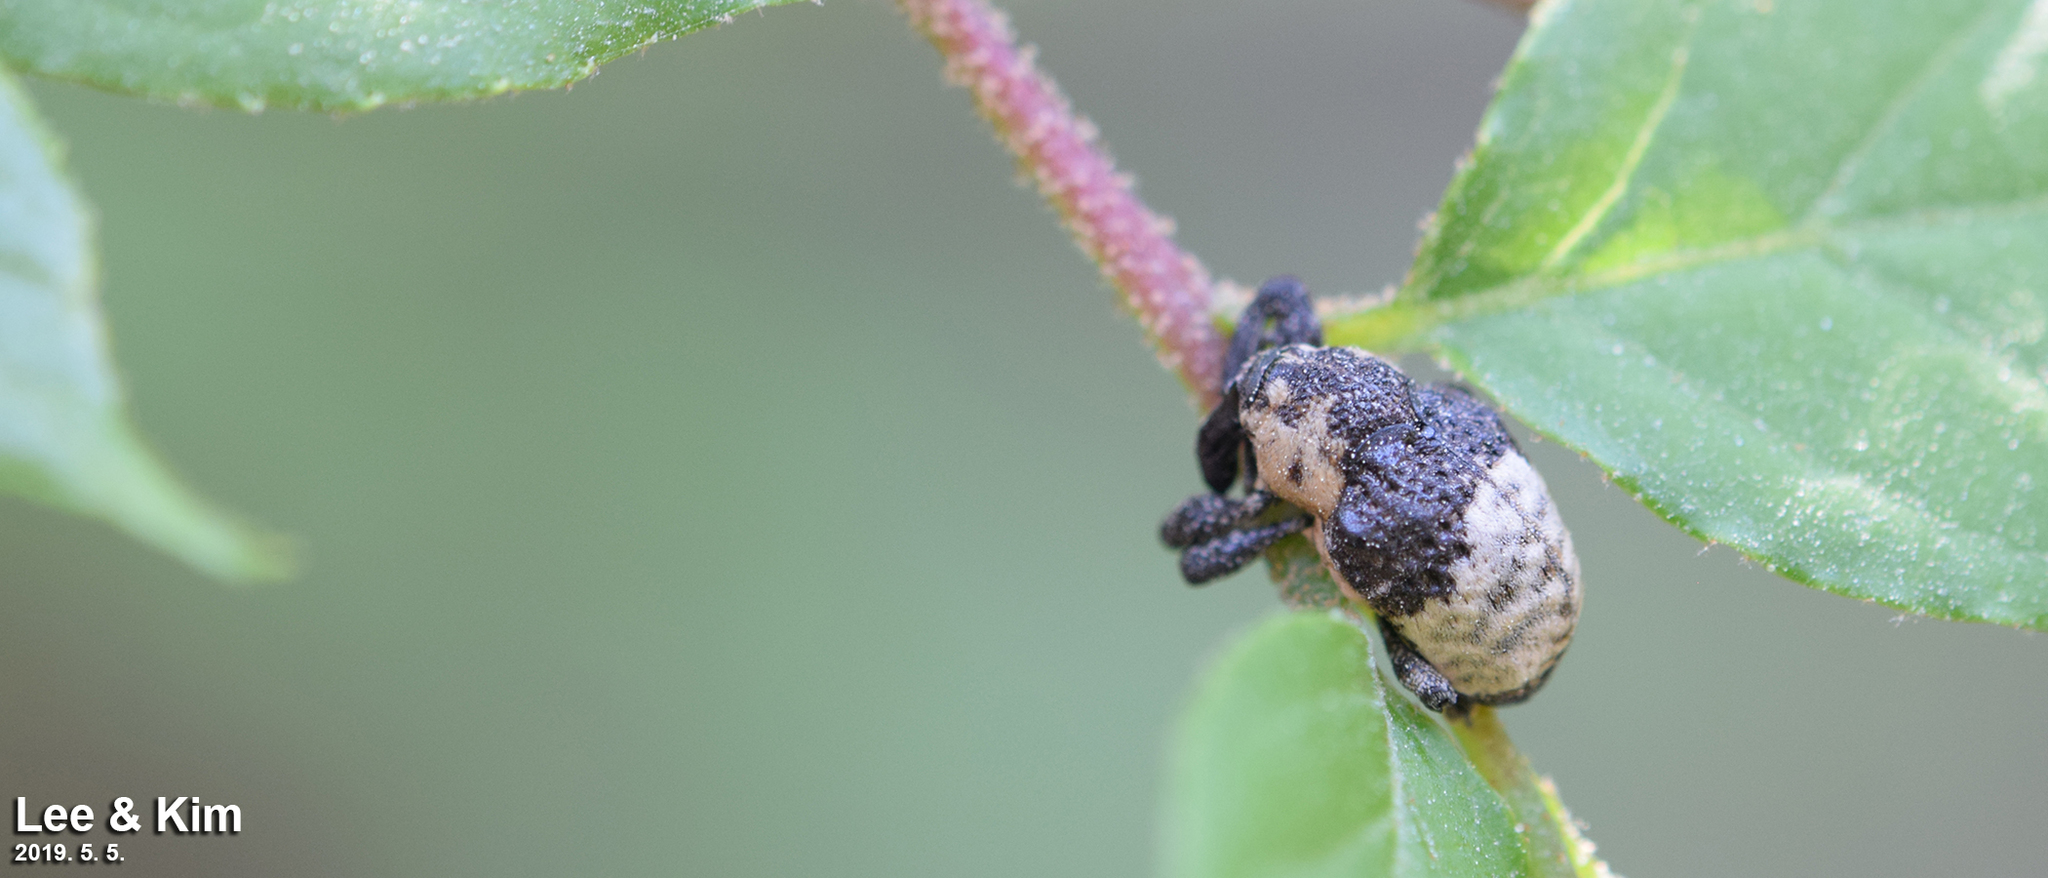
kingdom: Animalia
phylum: Arthropoda
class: Insecta
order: Coleoptera
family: Curculionidae
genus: Alcides
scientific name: Alcides trifidus
